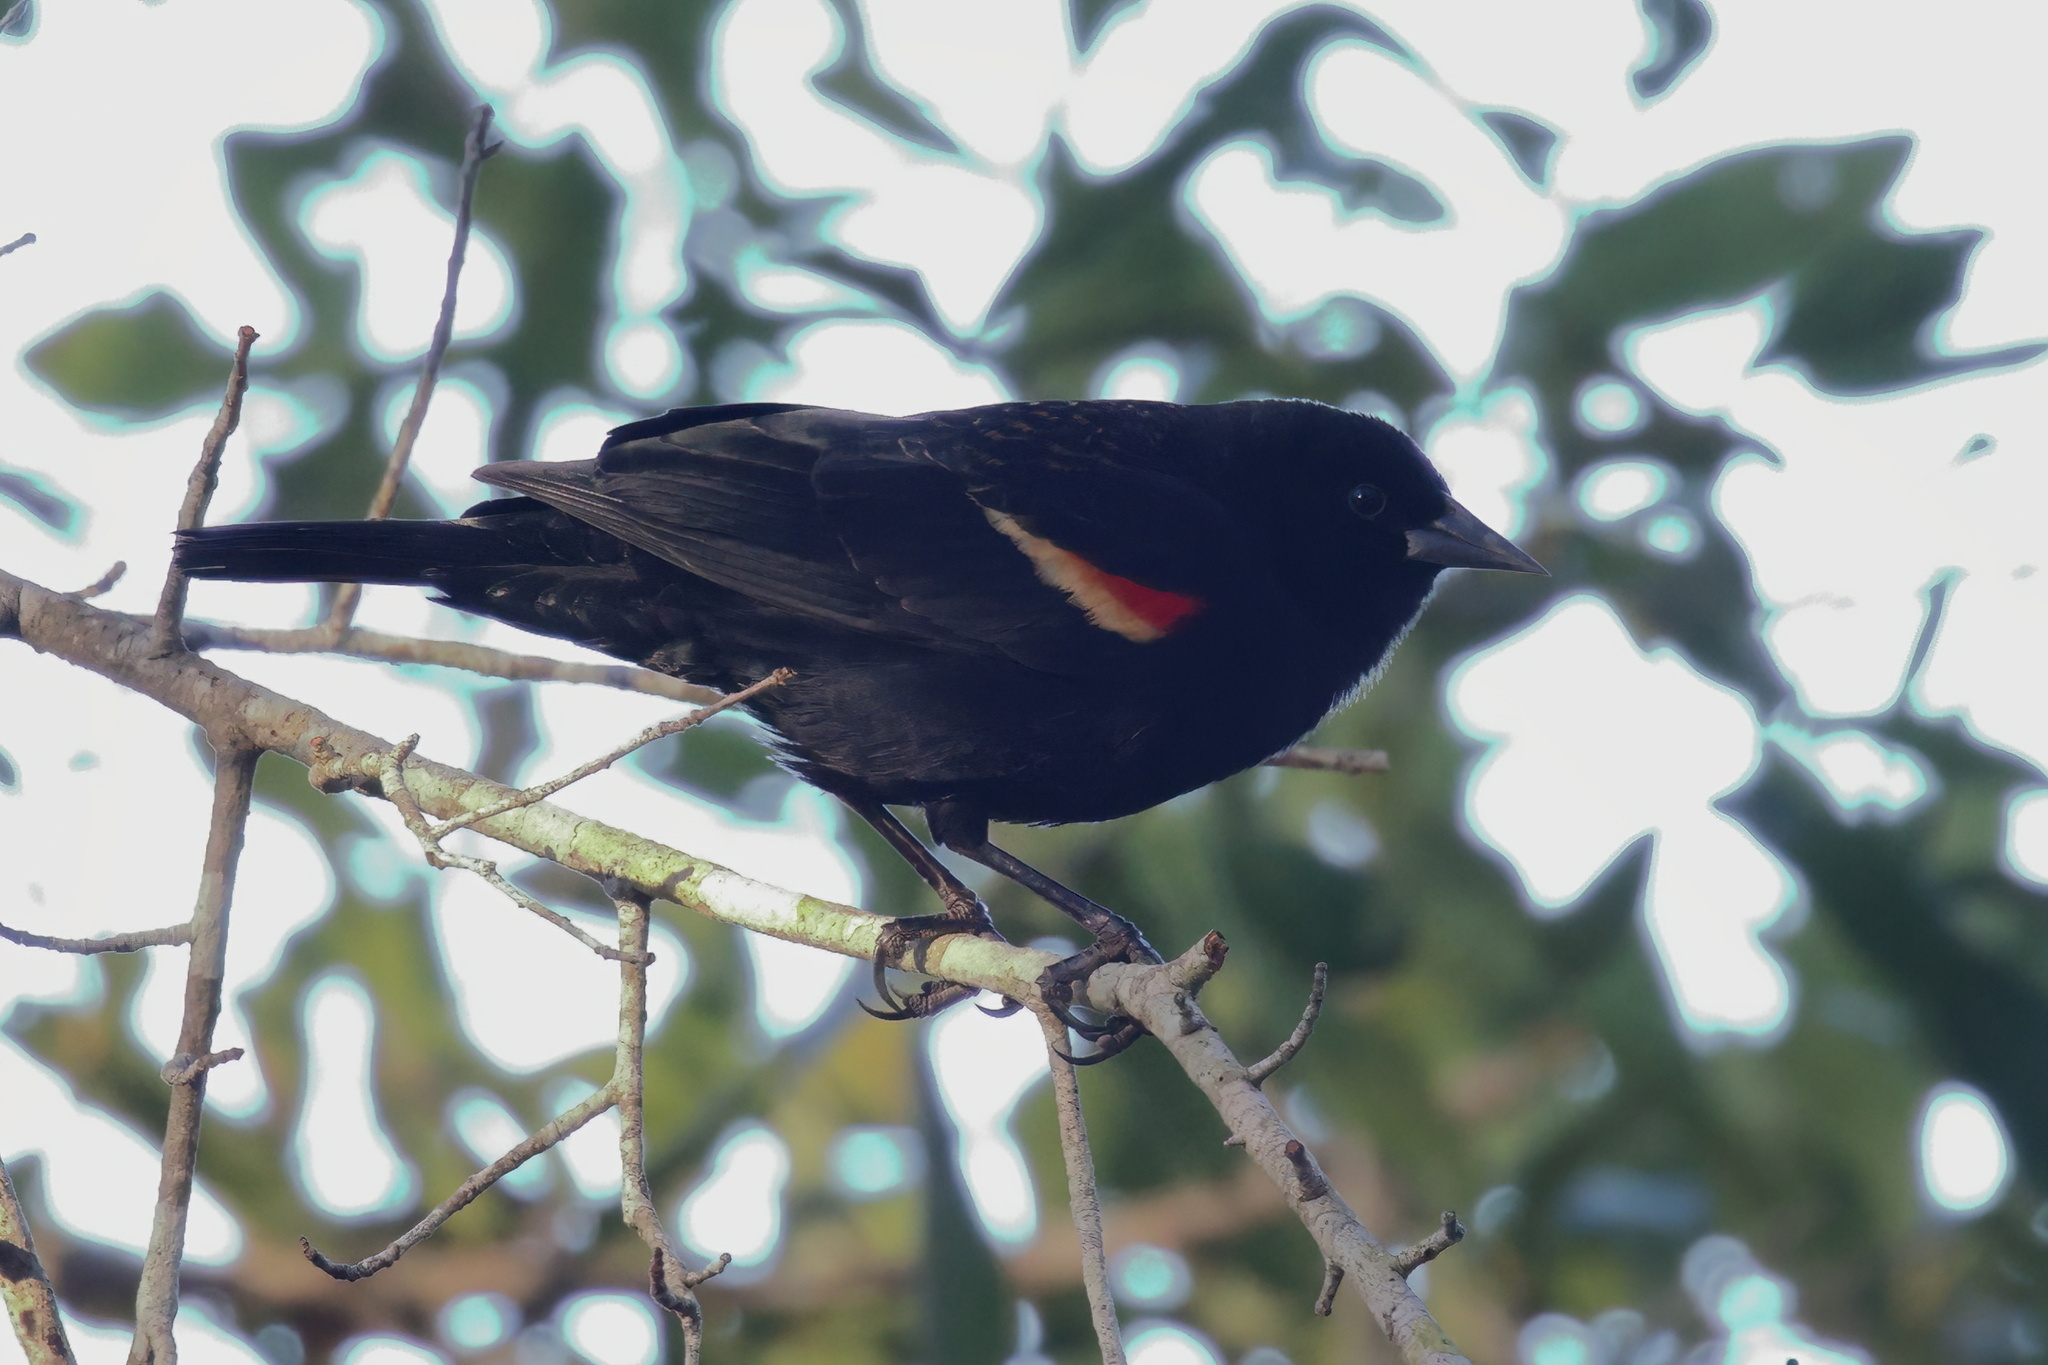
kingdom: Animalia
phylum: Chordata
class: Aves
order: Passeriformes
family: Icteridae
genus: Agelaius
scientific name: Agelaius phoeniceus
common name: Red-winged blackbird
